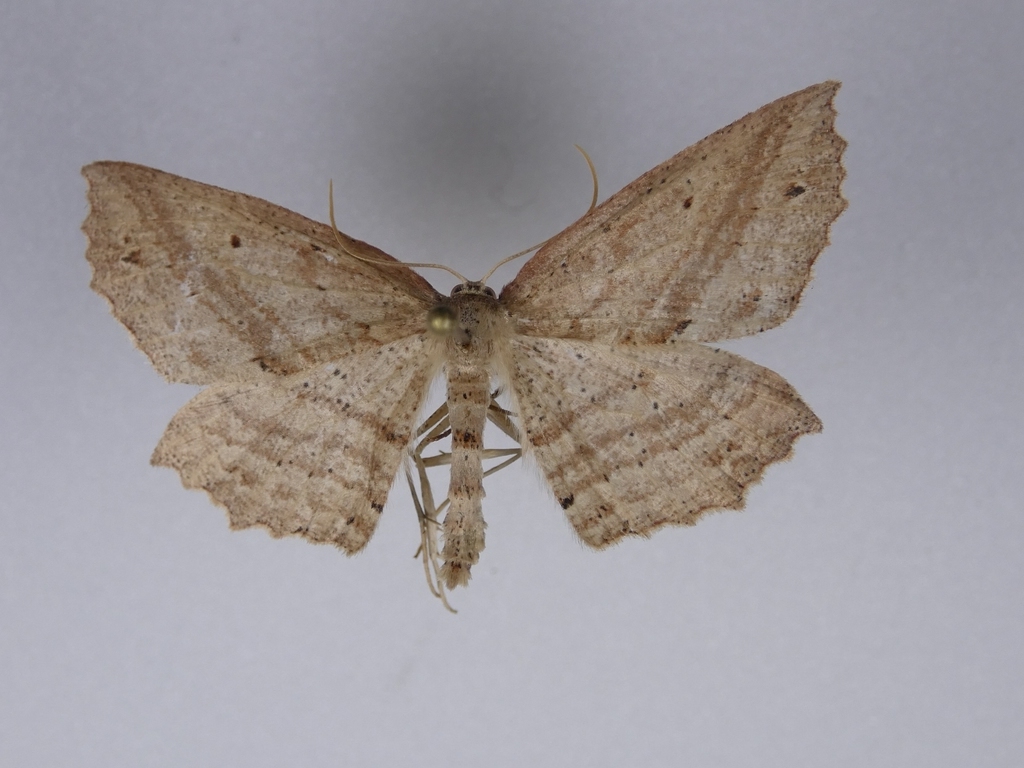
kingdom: Animalia
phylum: Arthropoda
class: Insecta
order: Lepidoptera
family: Geometridae
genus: Xyridacma
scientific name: Xyridacma veronicae
